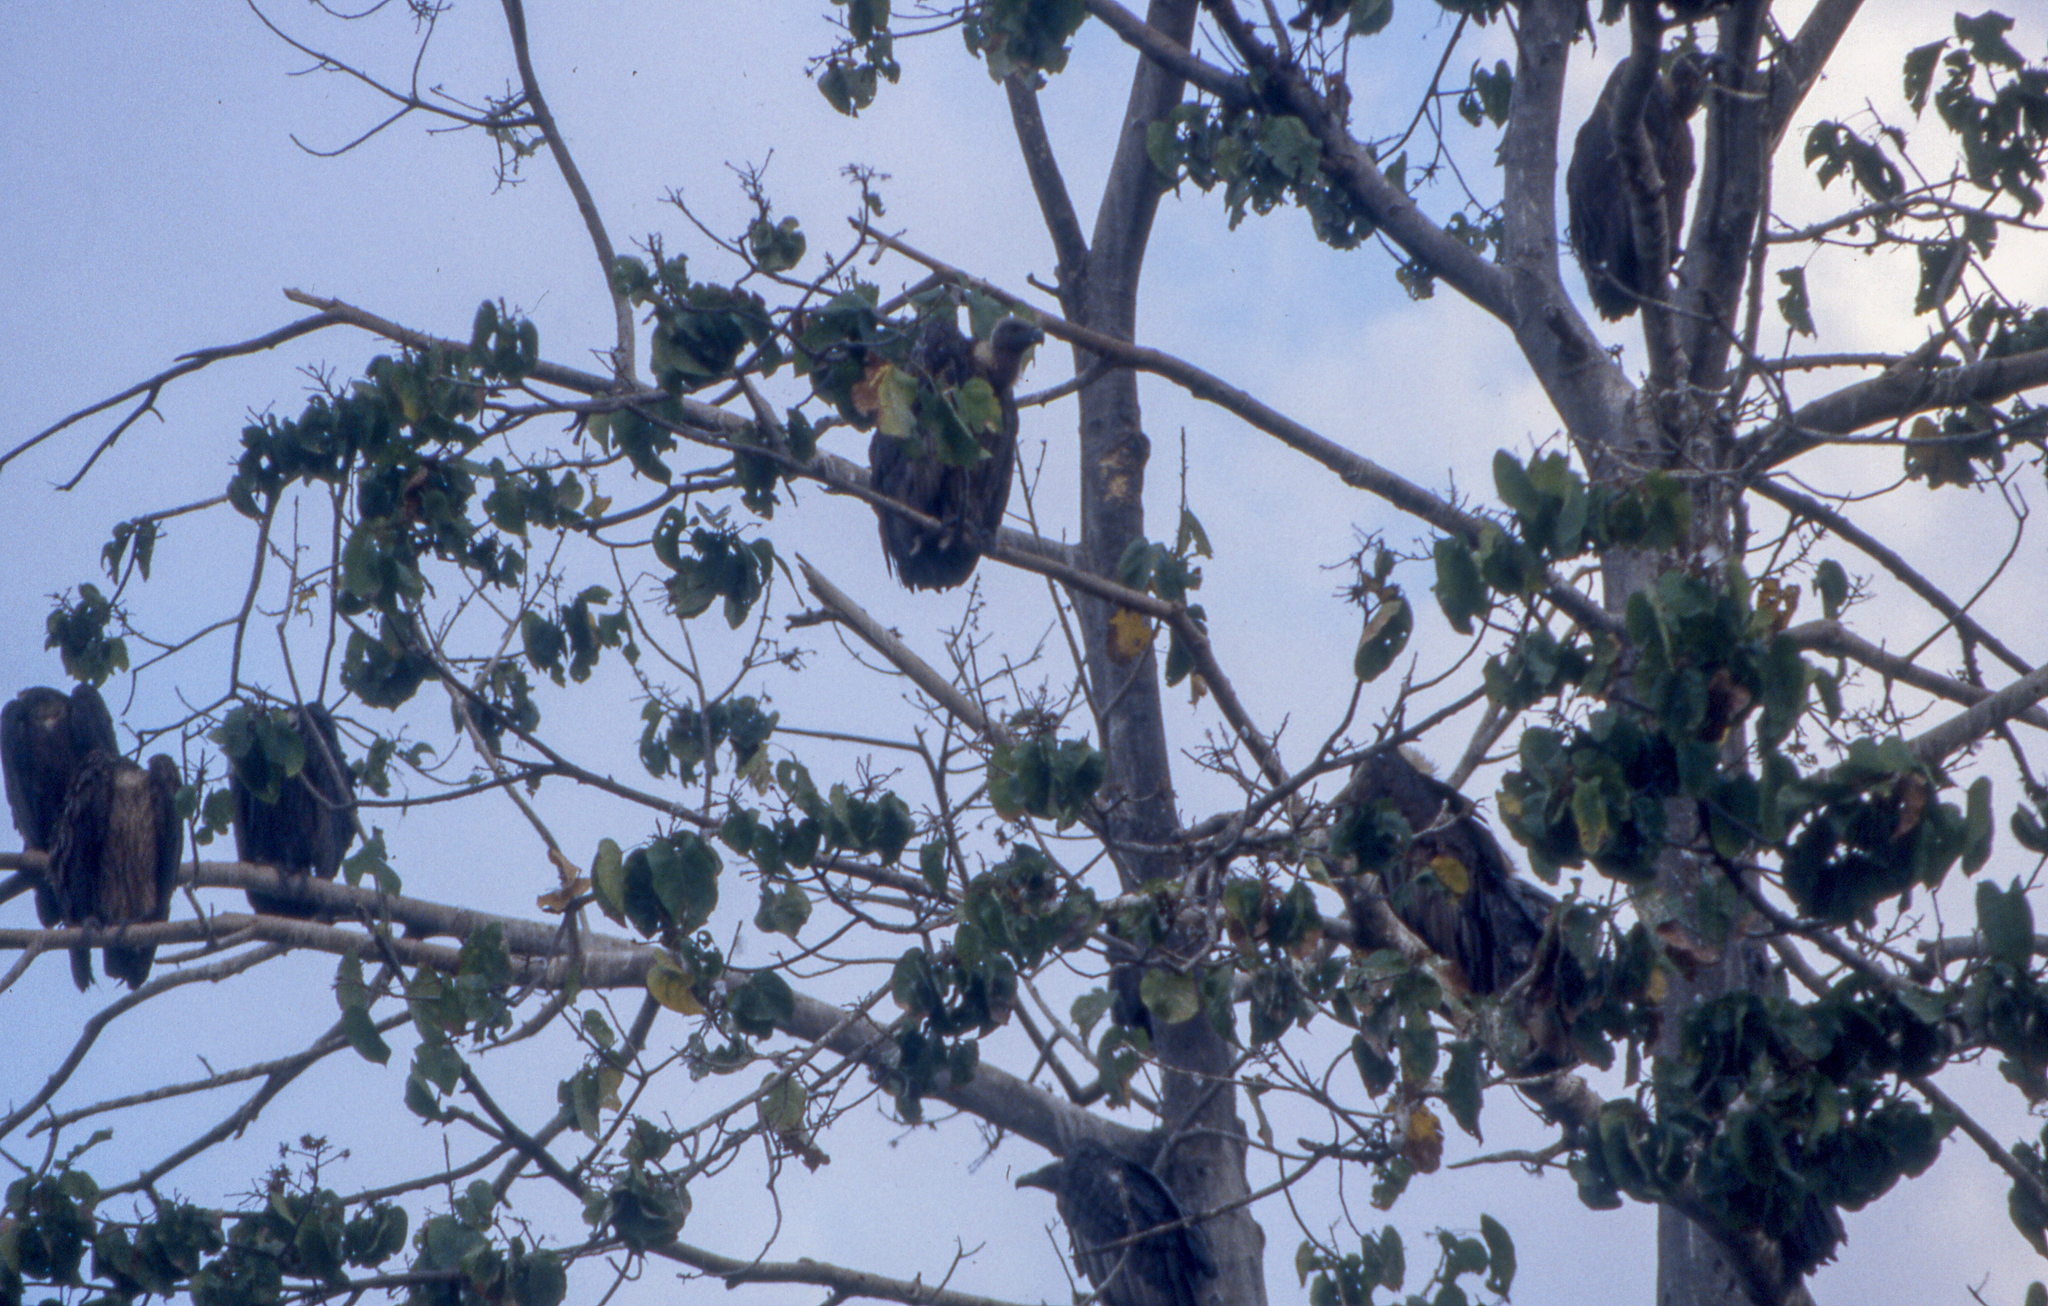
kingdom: Animalia
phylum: Chordata
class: Mammalia
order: Chiroptera
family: Pteropodidae
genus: Pteropus
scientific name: Pteropus vampyrus
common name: Large flying fox
